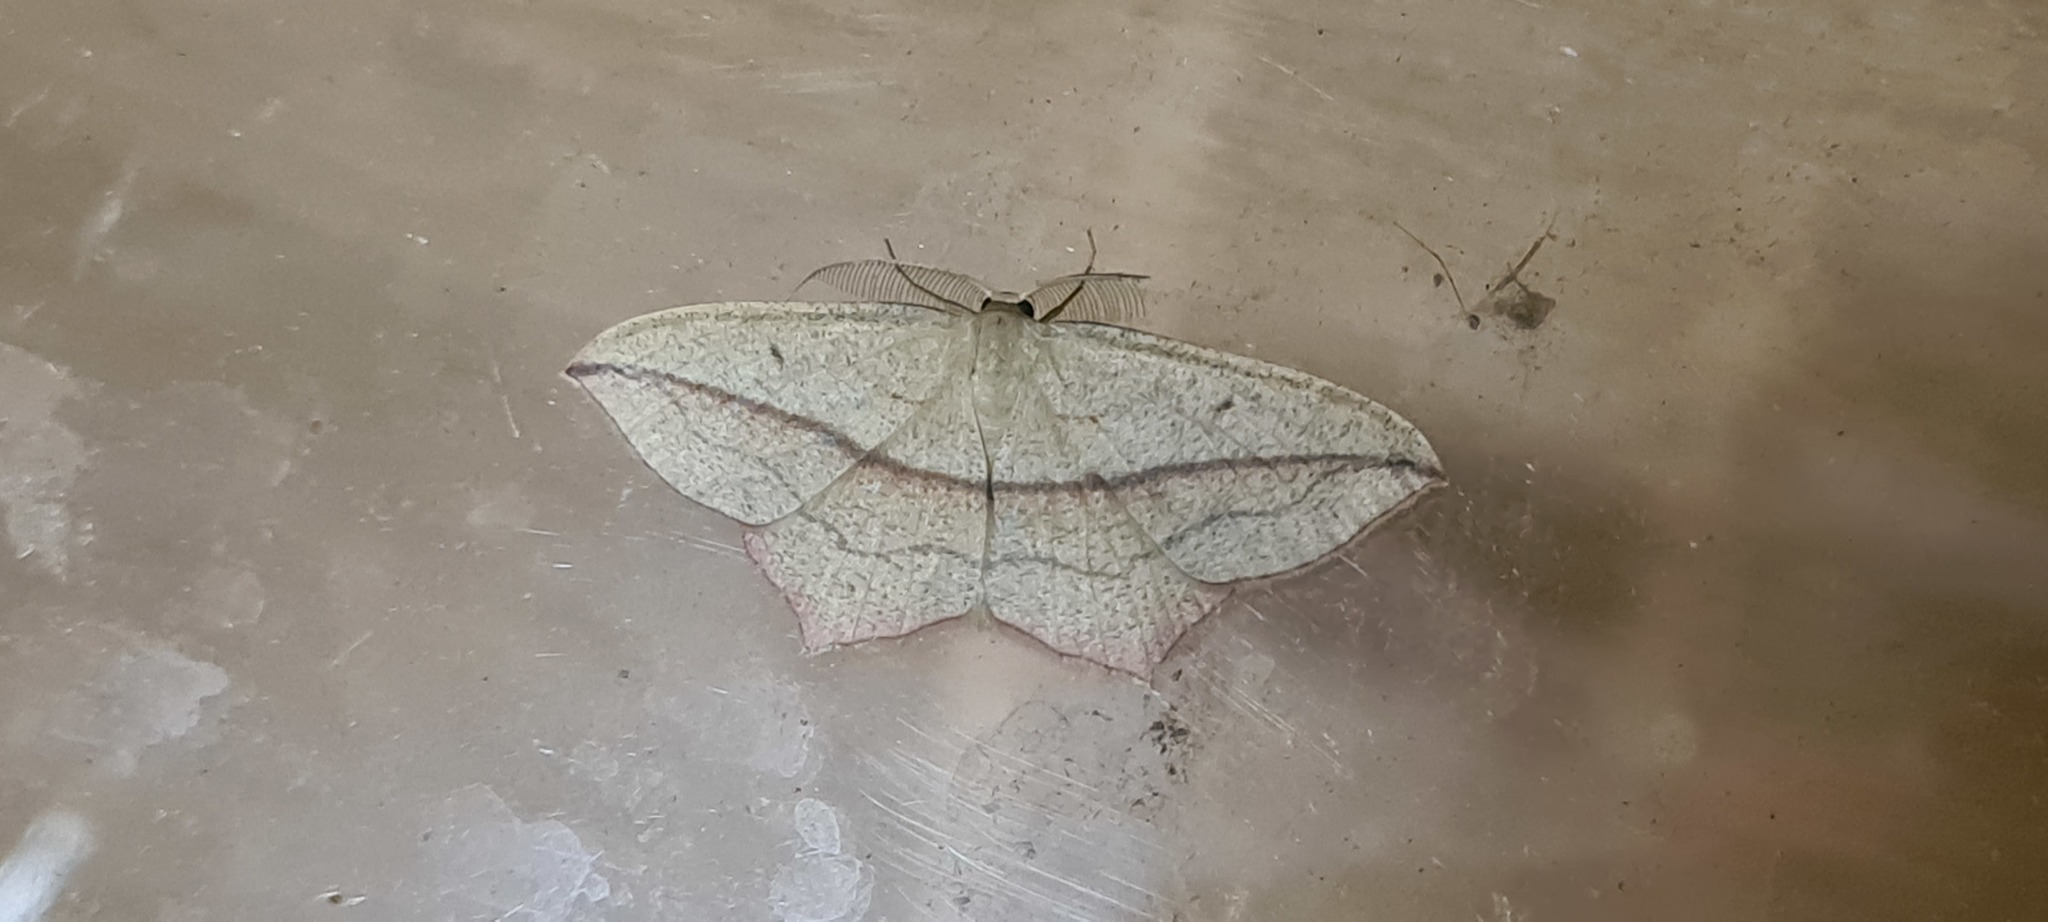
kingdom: Animalia
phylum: Arthropoda
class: Insecta
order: Lepidoptera
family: Geometridae
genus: Timandra
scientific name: Timandra comae
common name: Blood-vein
